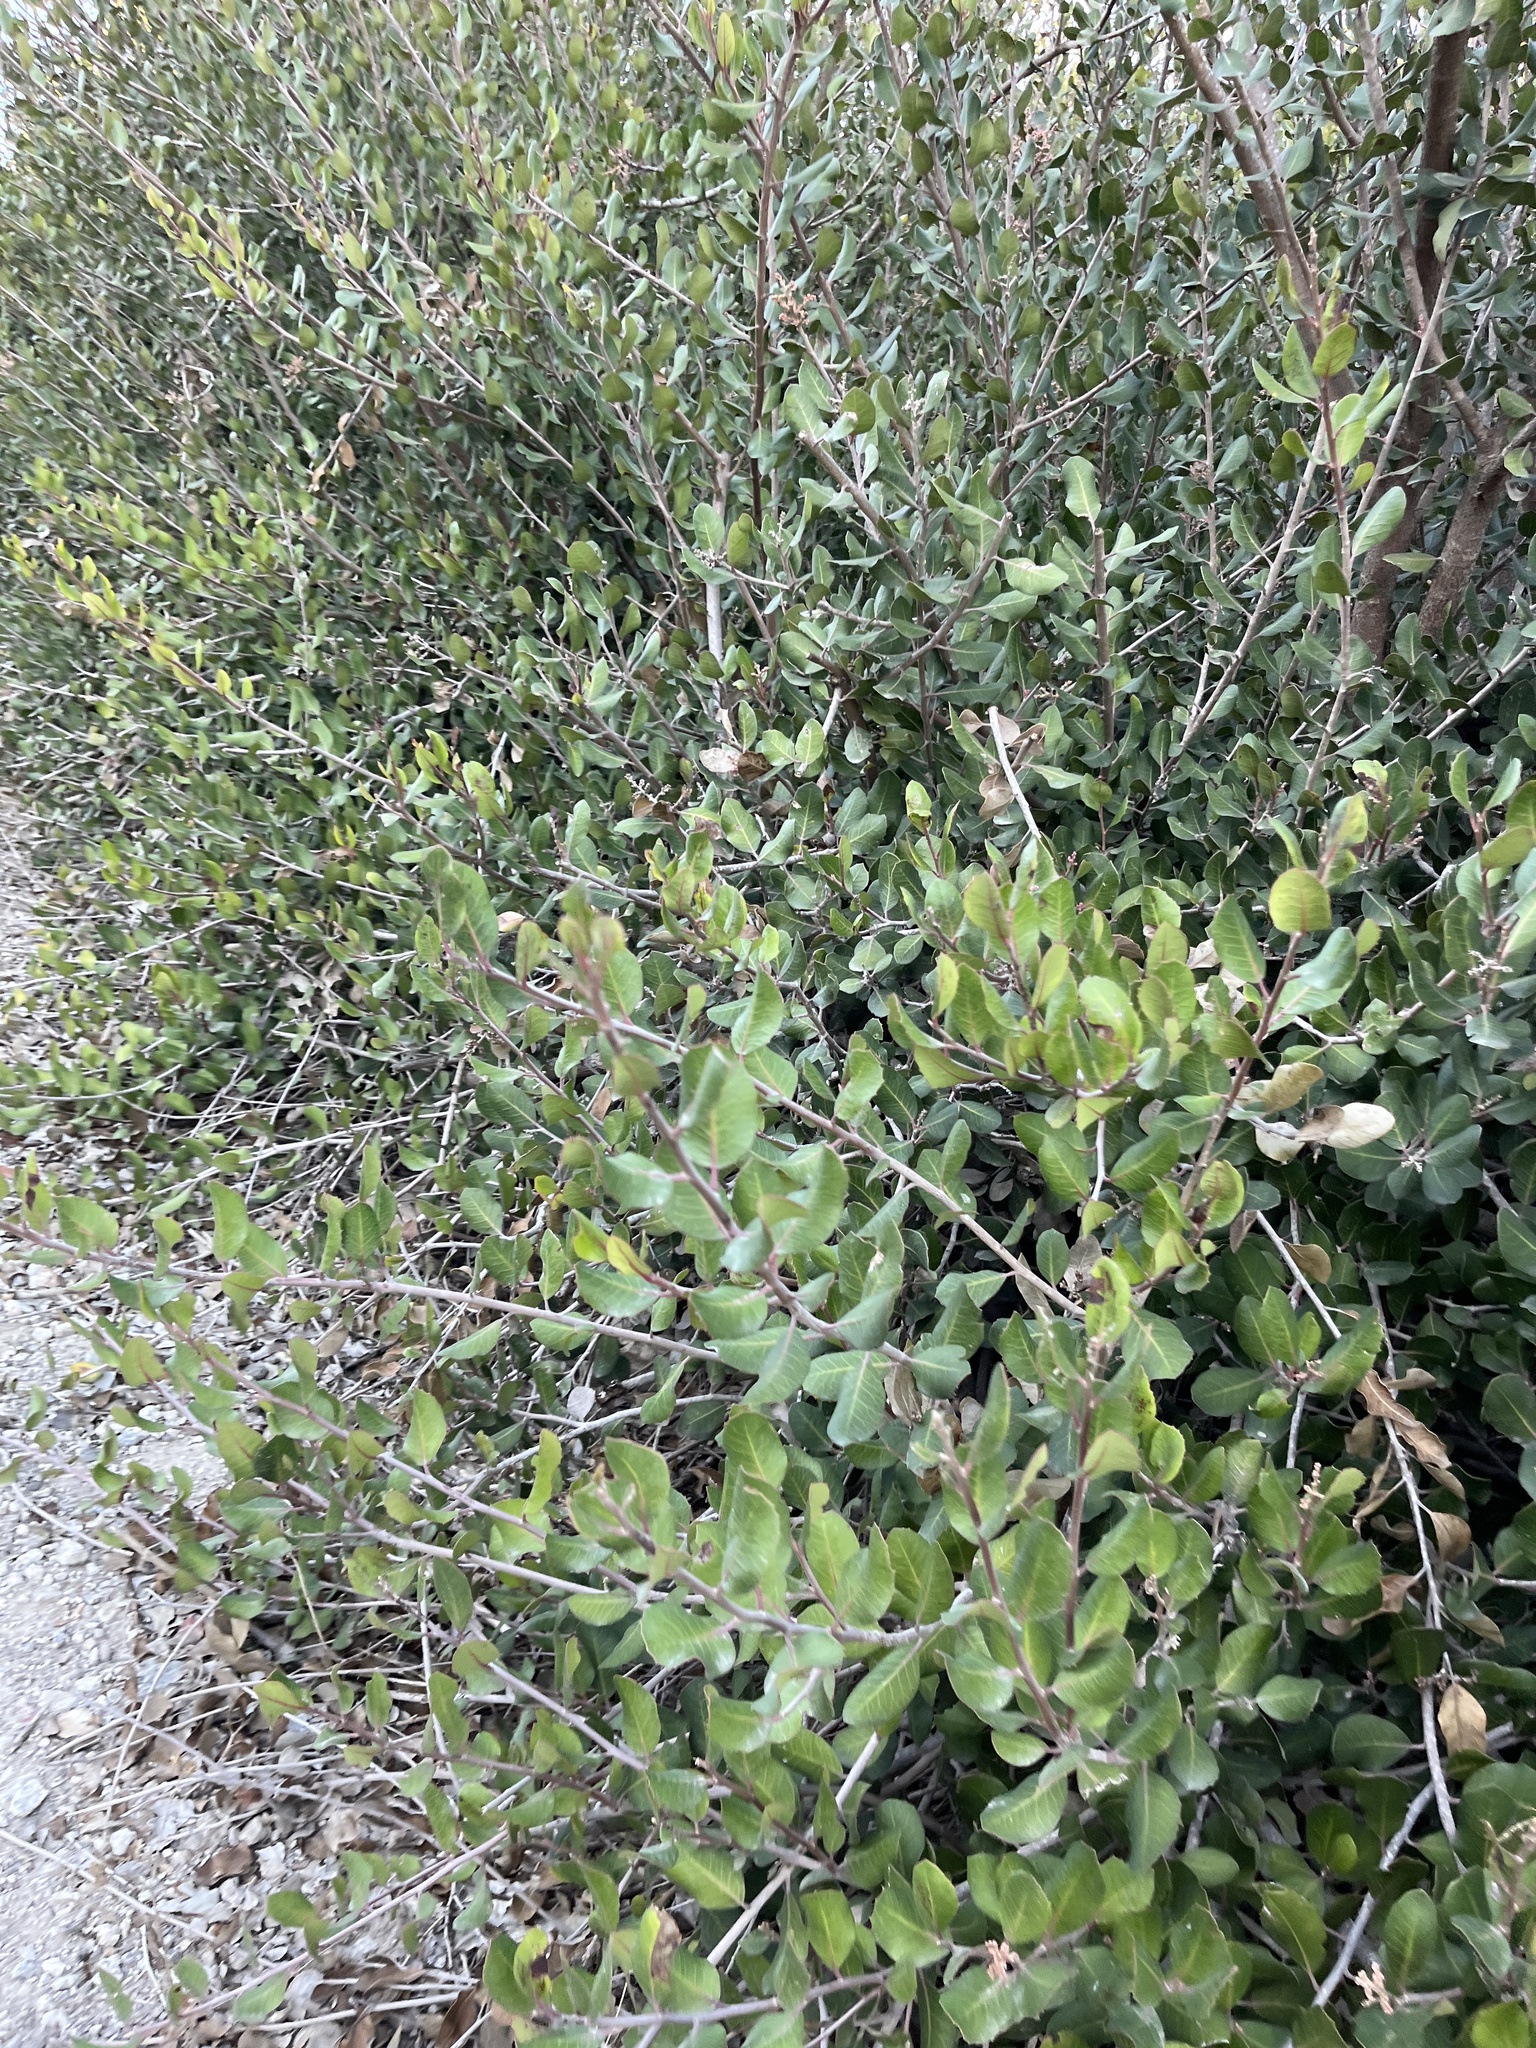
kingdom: Plantae
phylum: Tracheophyta
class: Magnoliopsida
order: Sapindales
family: Anacardiaceae
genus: Rhus
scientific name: Rhus integrifolia
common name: Lemonade sumac
